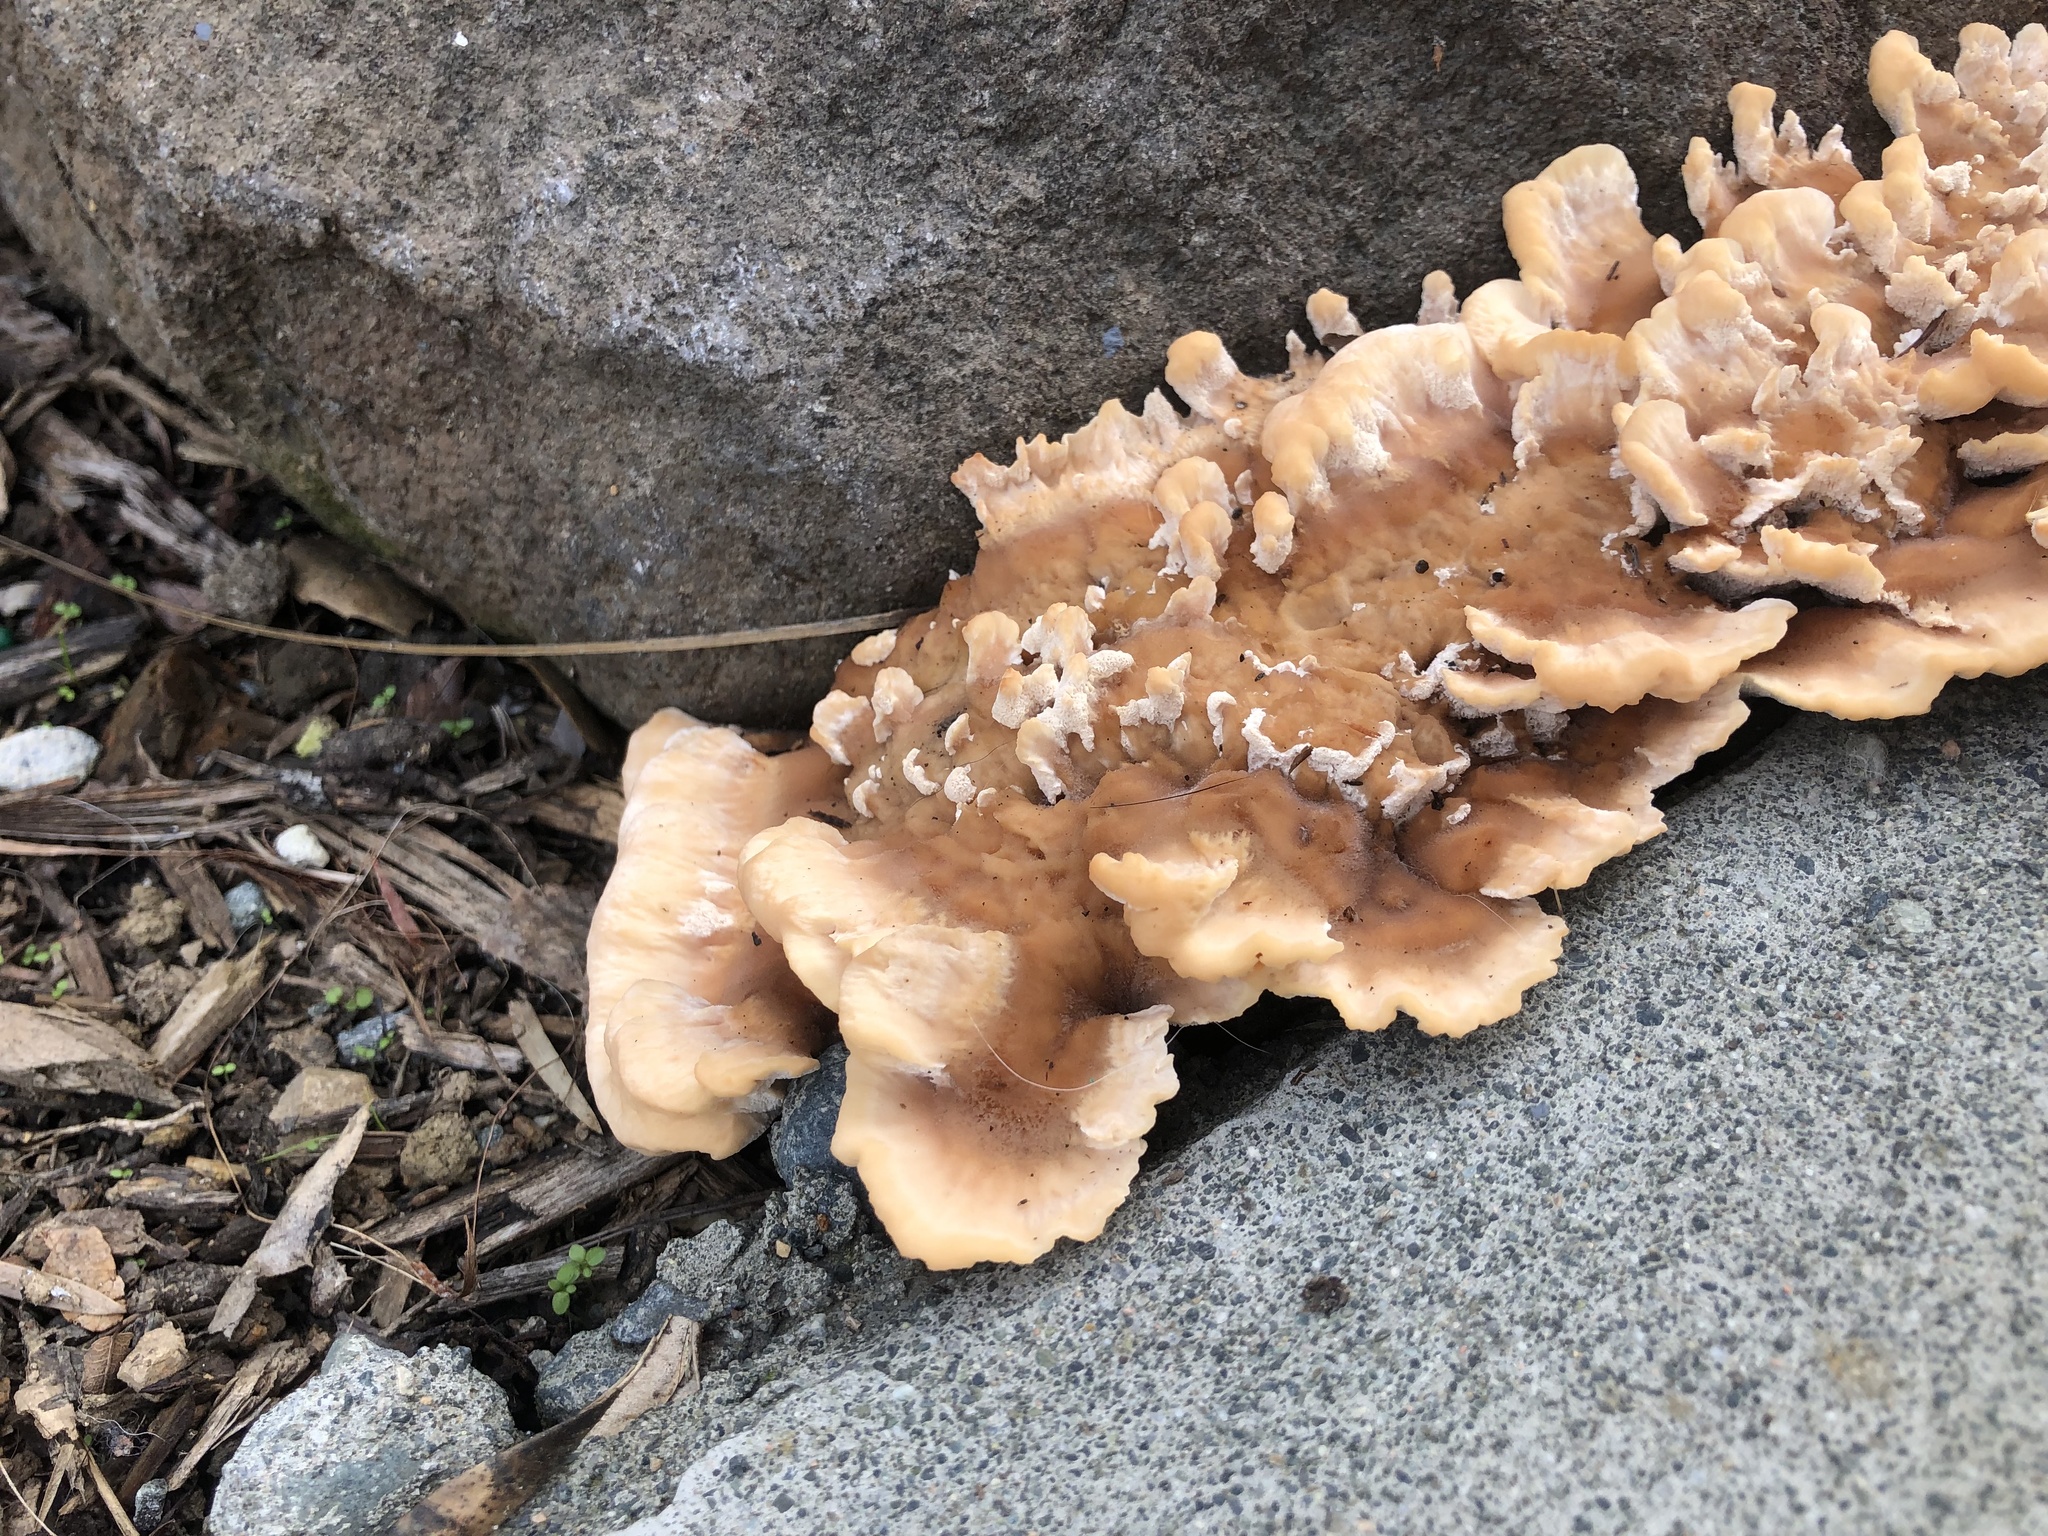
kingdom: Fungi
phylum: Basidiomycota
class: Agaricomycetes
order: Polyporales
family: Podoscyphaceae
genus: Abortiporus
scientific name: Abortiporus biennis
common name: Blushing rosette
